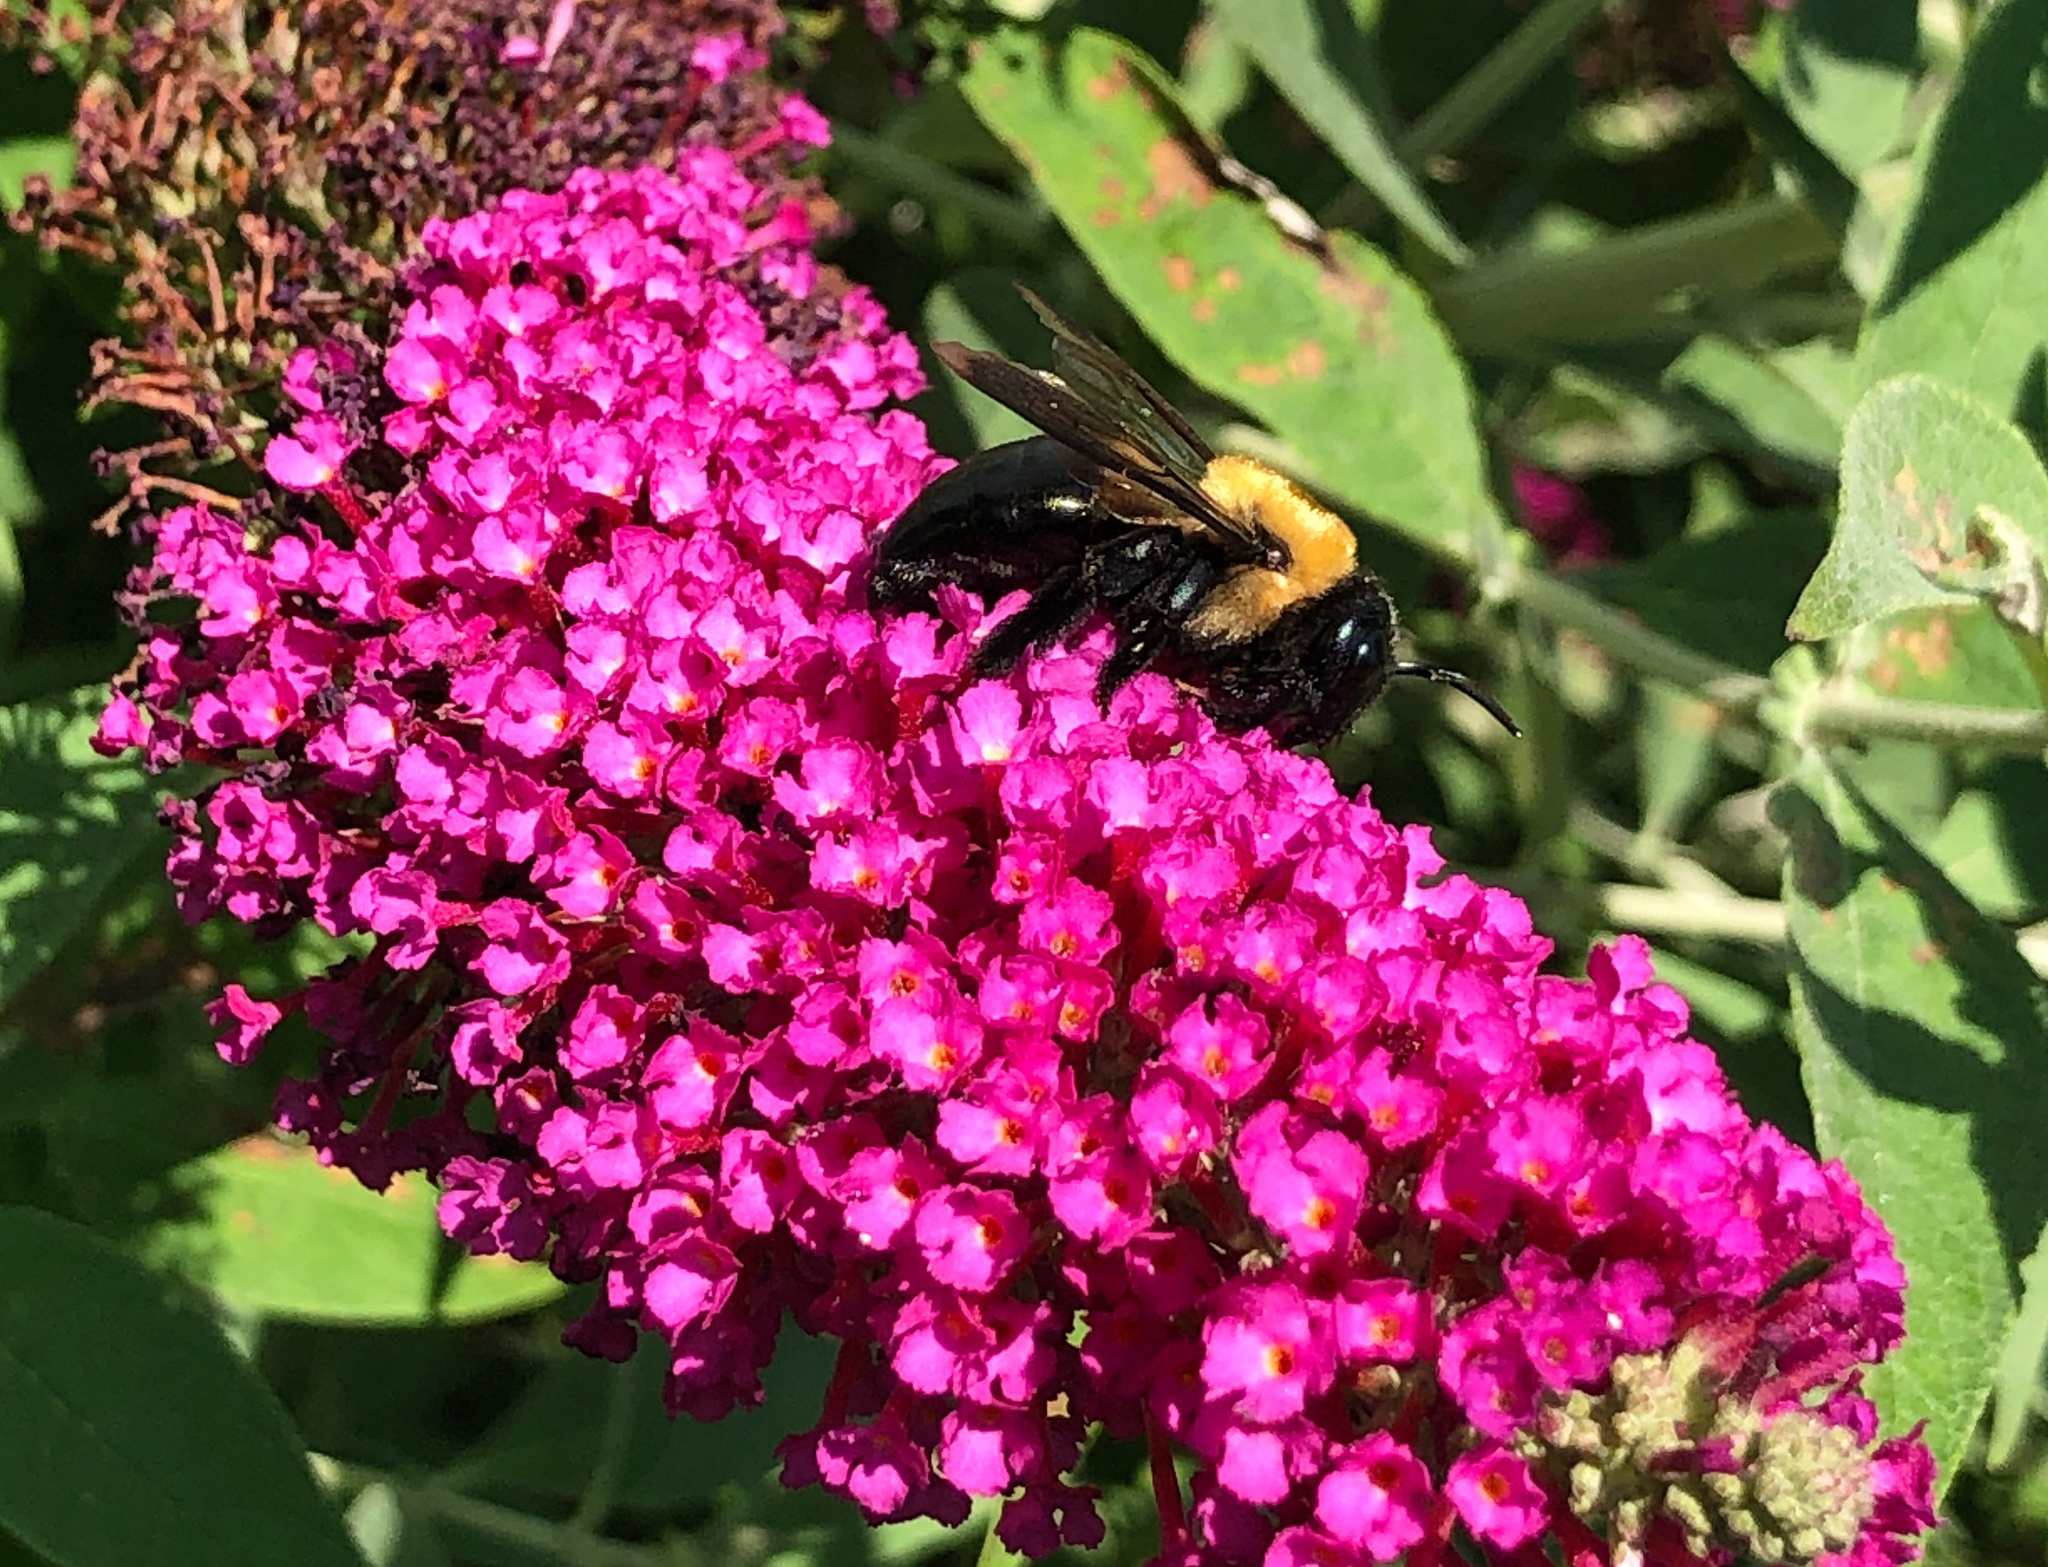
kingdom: Animalia
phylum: Arthropoda
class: Insecta
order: Hymenoptera
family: Apidae
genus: Xylocopa
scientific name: Xylocopa virginica
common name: Carpenter bee
